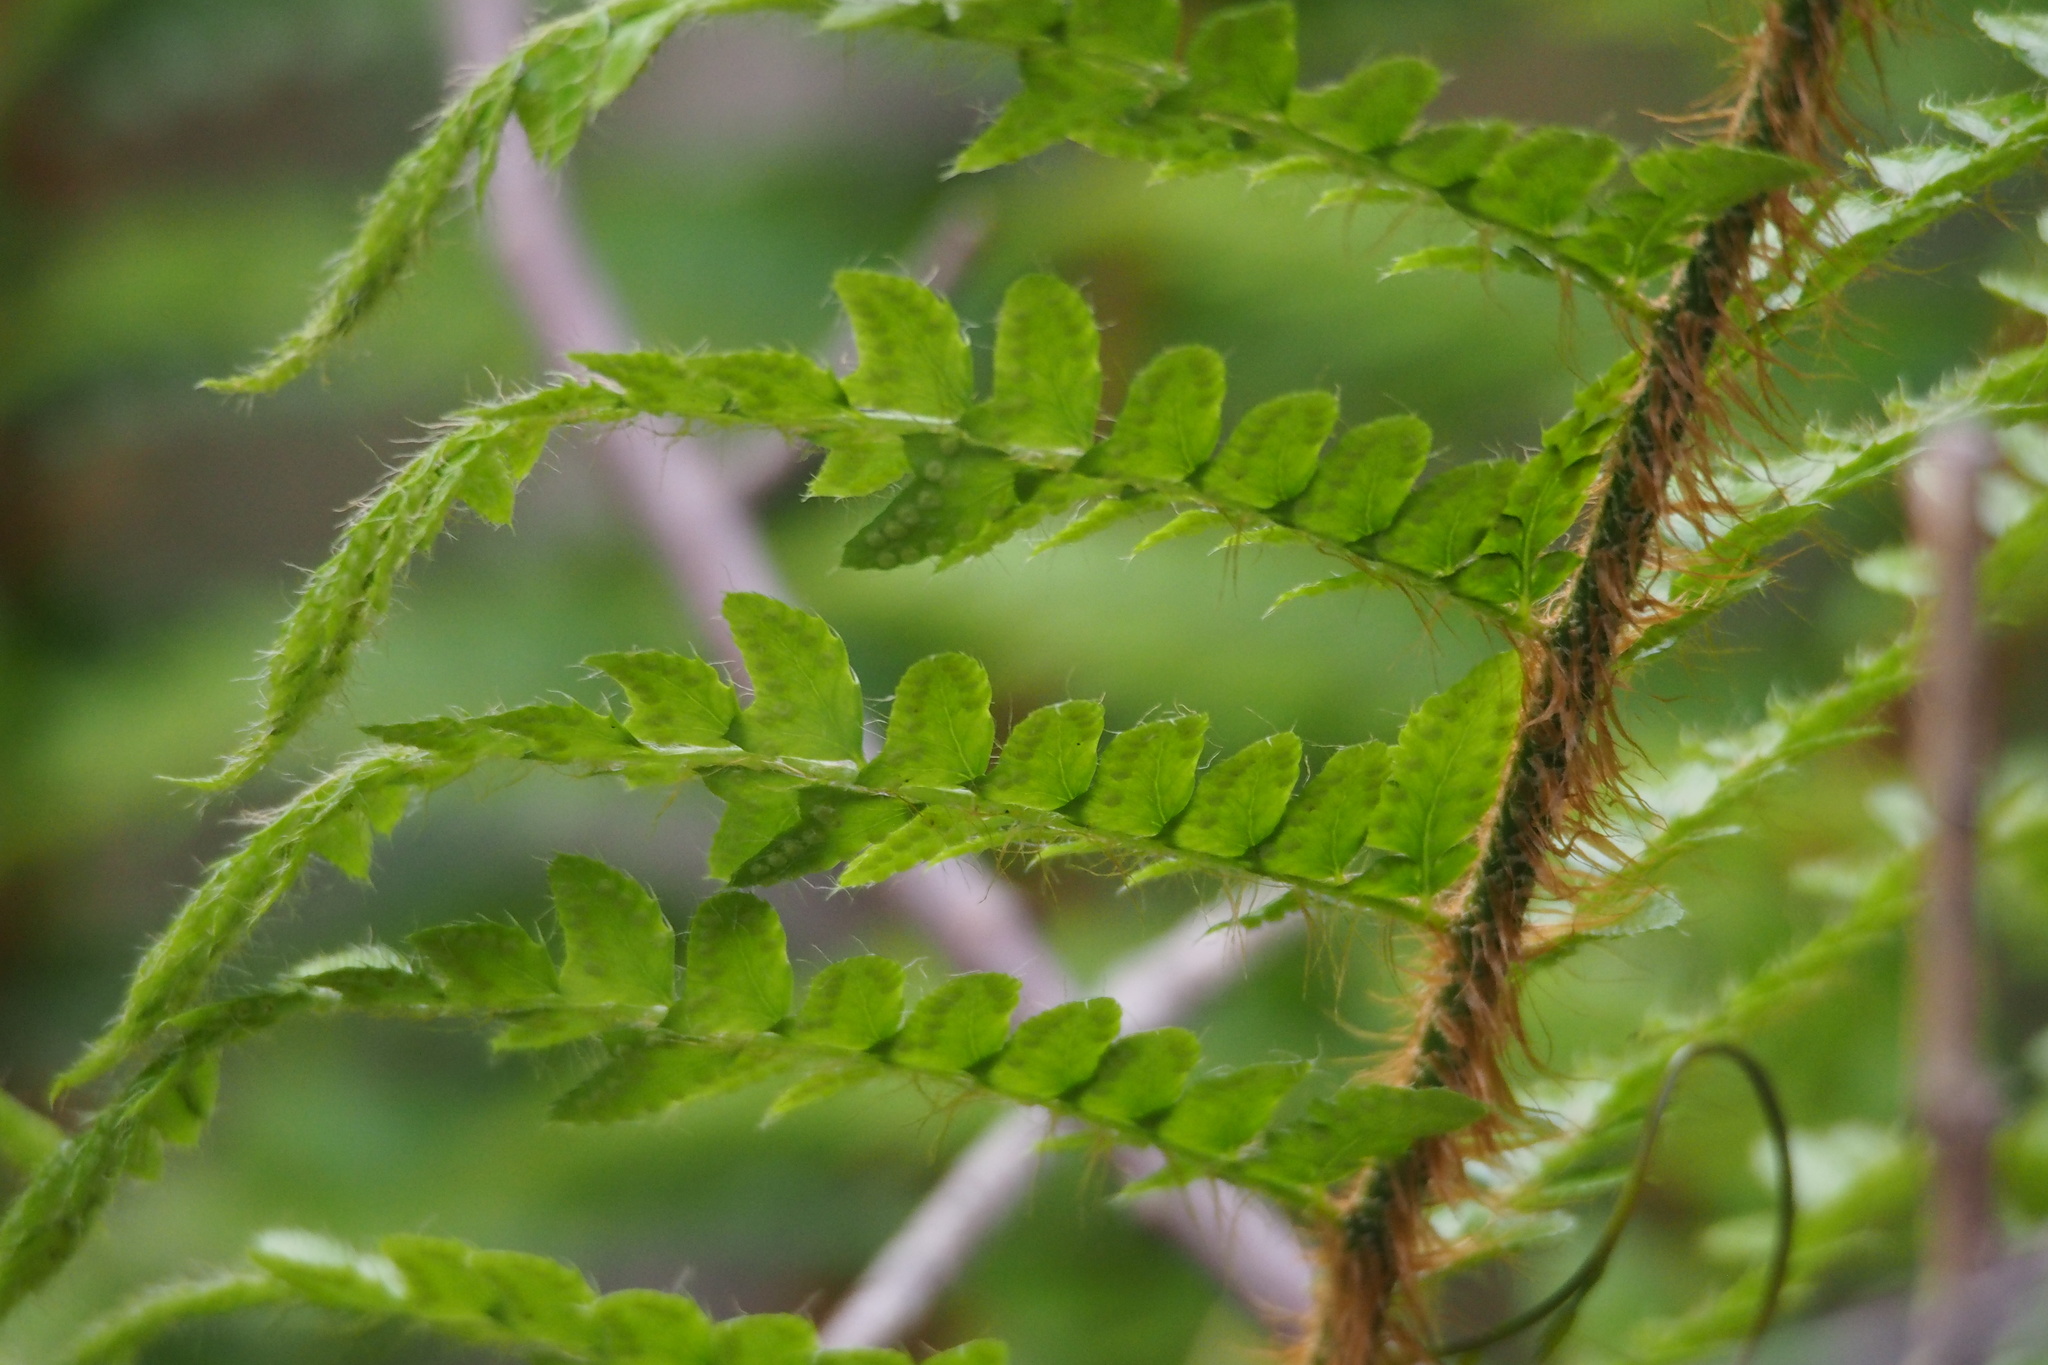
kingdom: Plantae
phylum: Tracheophyta
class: Polypodiopsida
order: Polypodiales
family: Dryopteridaceae
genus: Polystichum
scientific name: Polystichum luctuosum
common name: Korean rockfern
